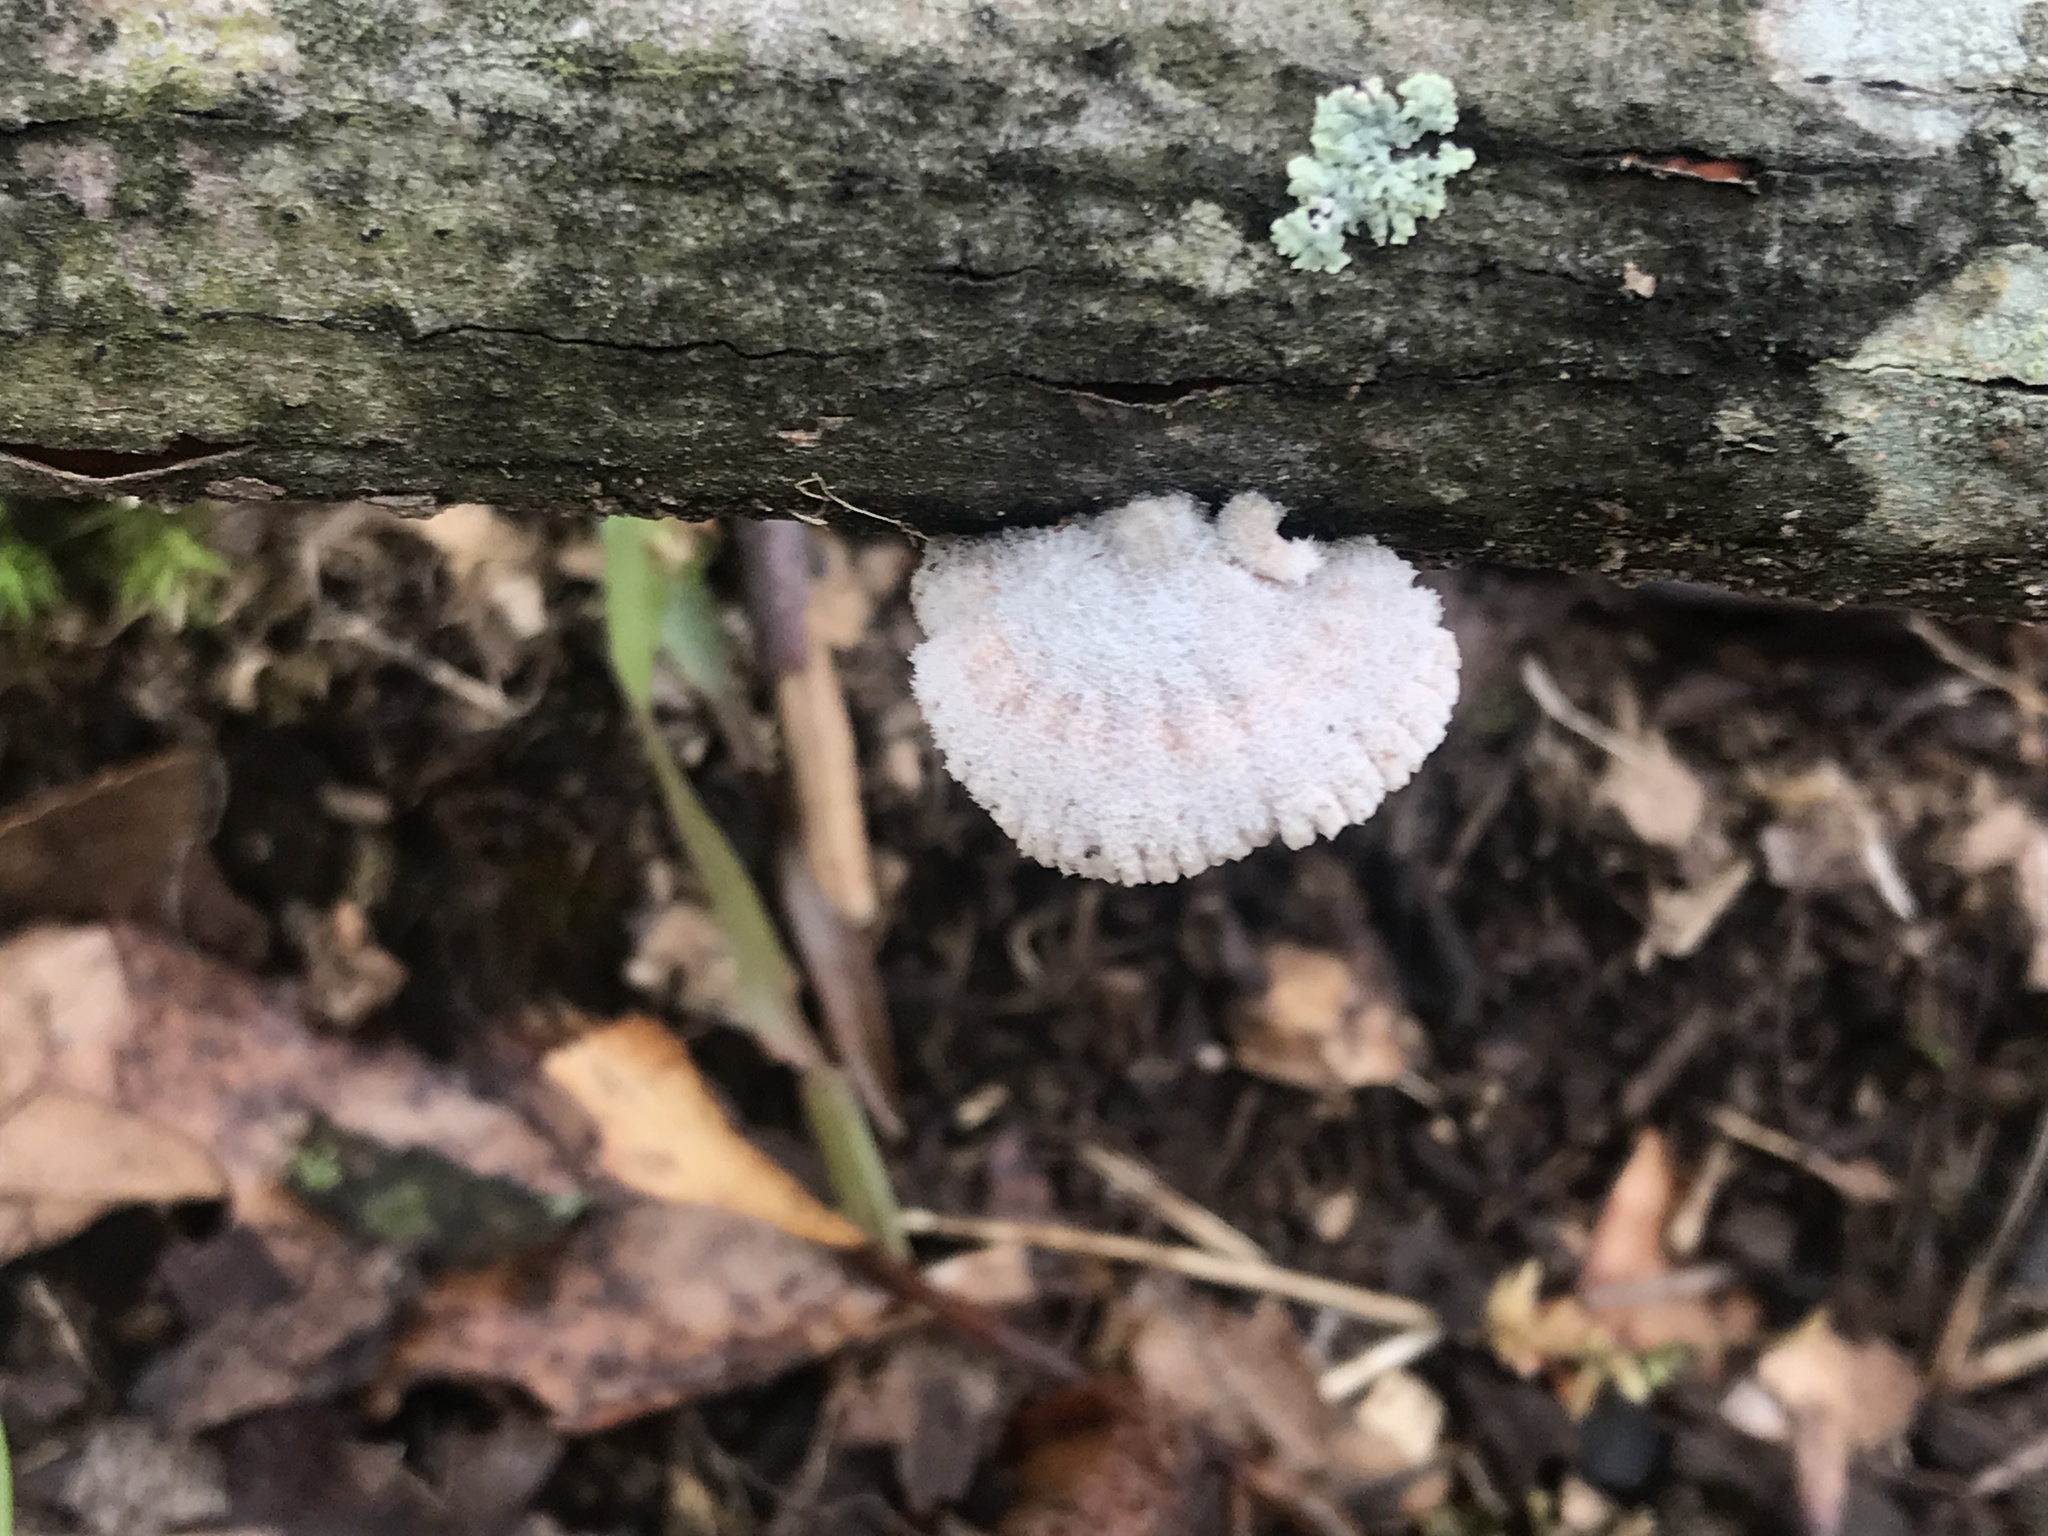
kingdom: Fungi
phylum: Basidiomycota
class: Agaricomycetes
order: Agaricales
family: Schizophyllaceae
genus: Schizophyllum
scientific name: Schizophyllum commune
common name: Common porecrust
